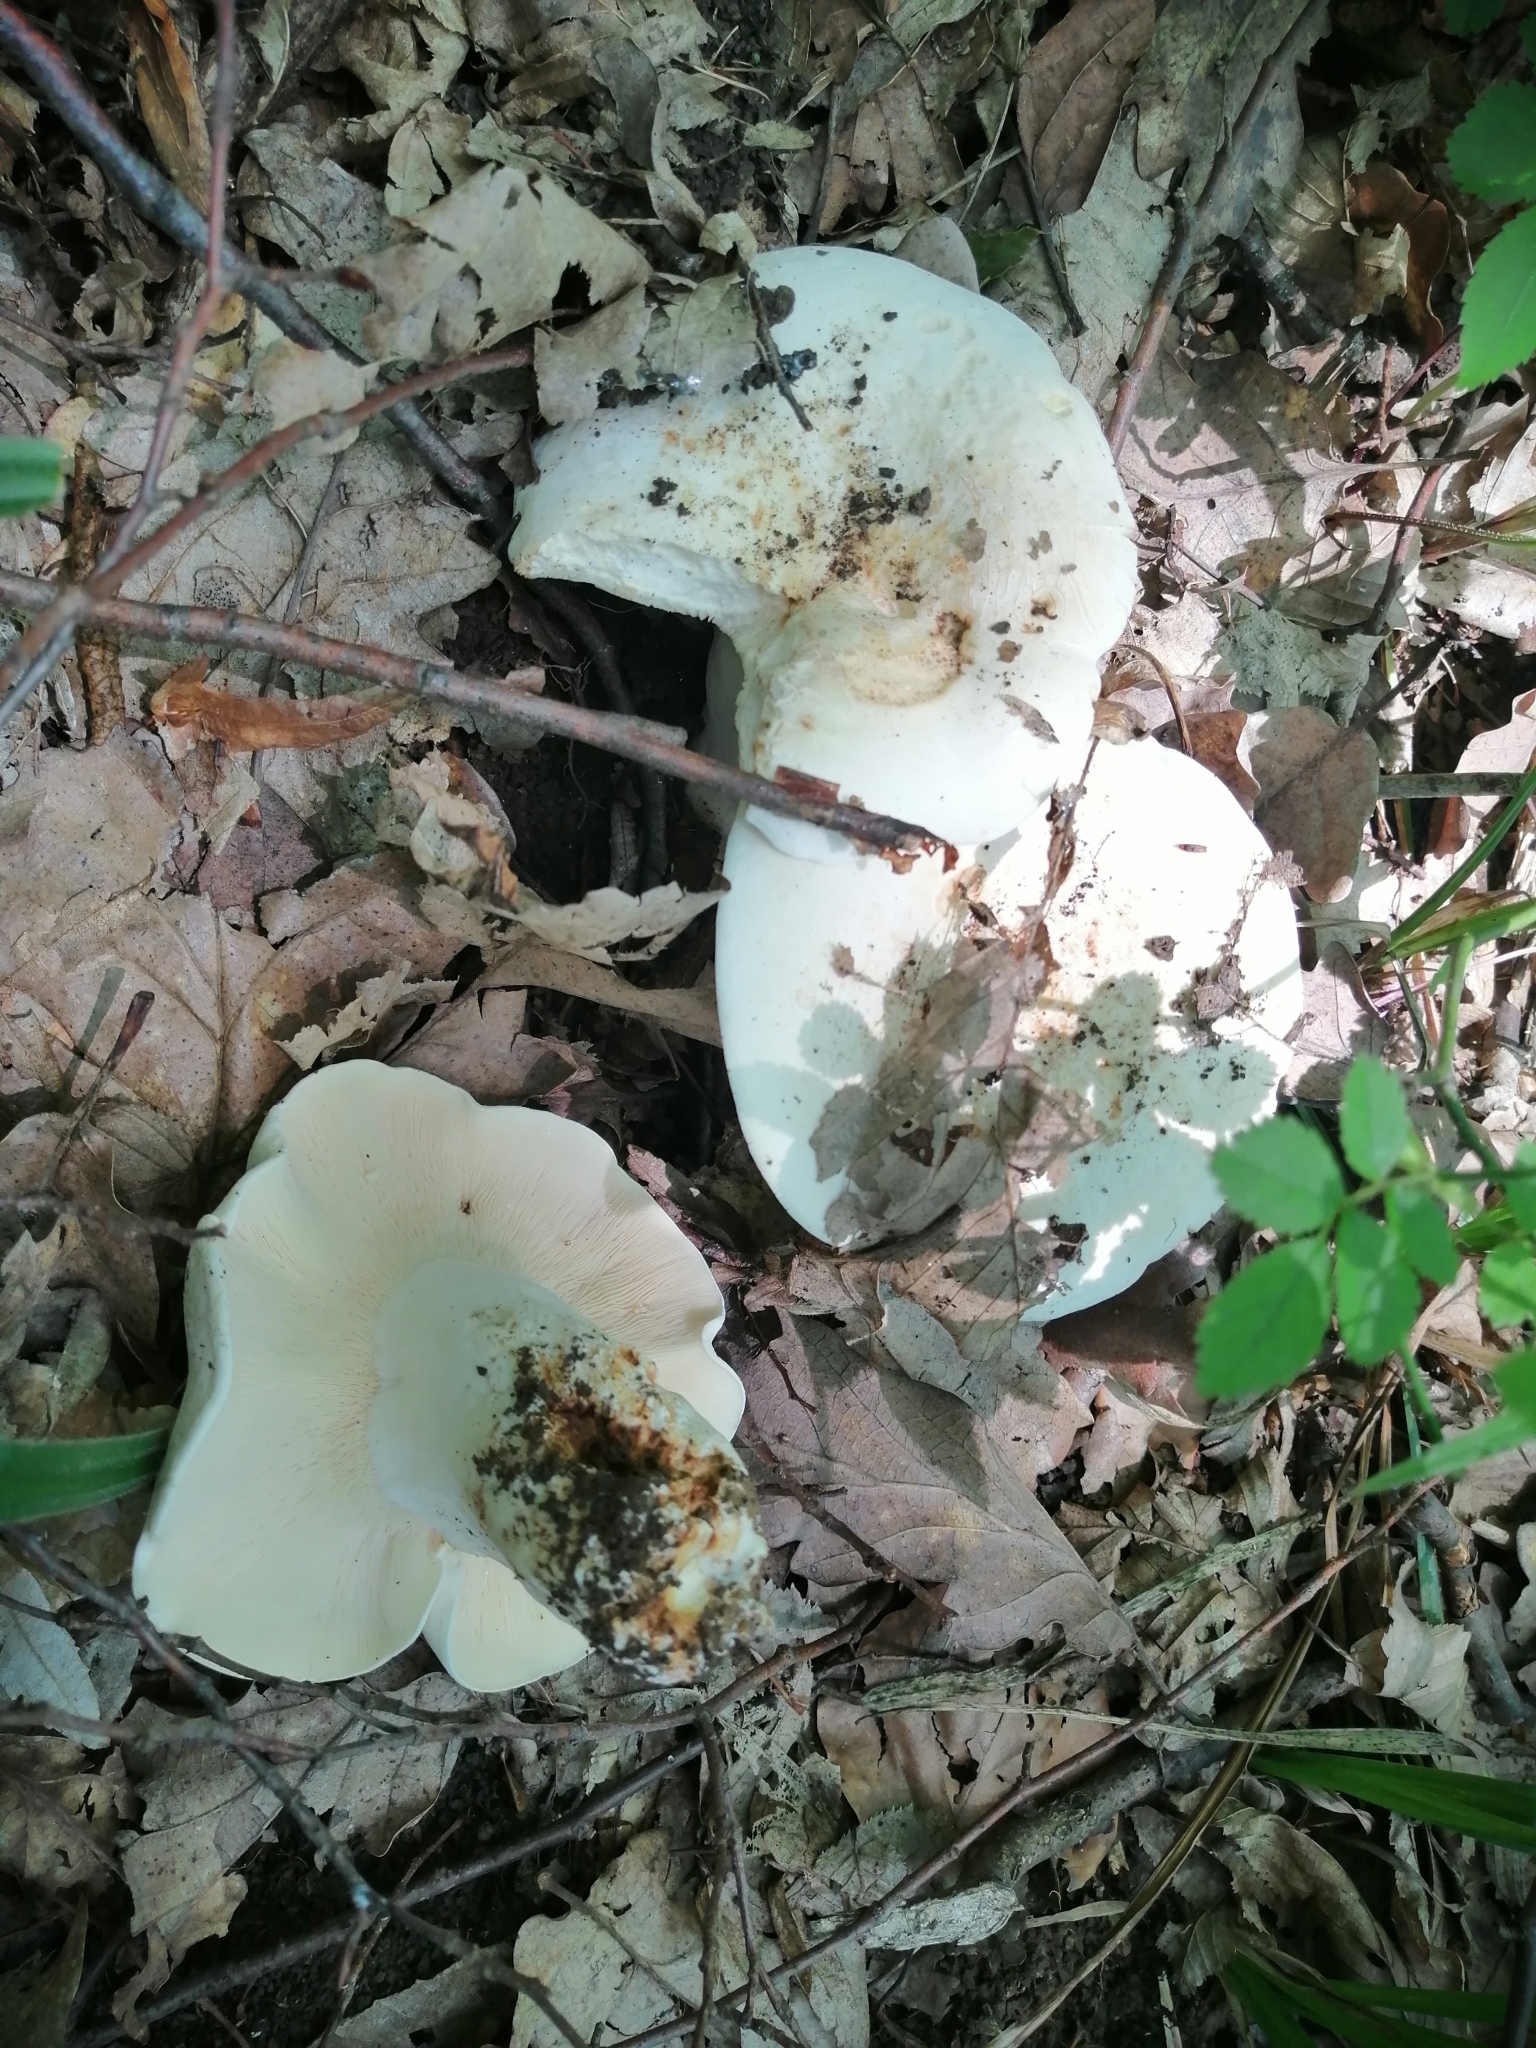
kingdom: Fungi
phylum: Basidiomycota
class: Agaricomycetes
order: Russulales
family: Russulaceae
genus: Lactifluus
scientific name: Lactifluus piperatus
